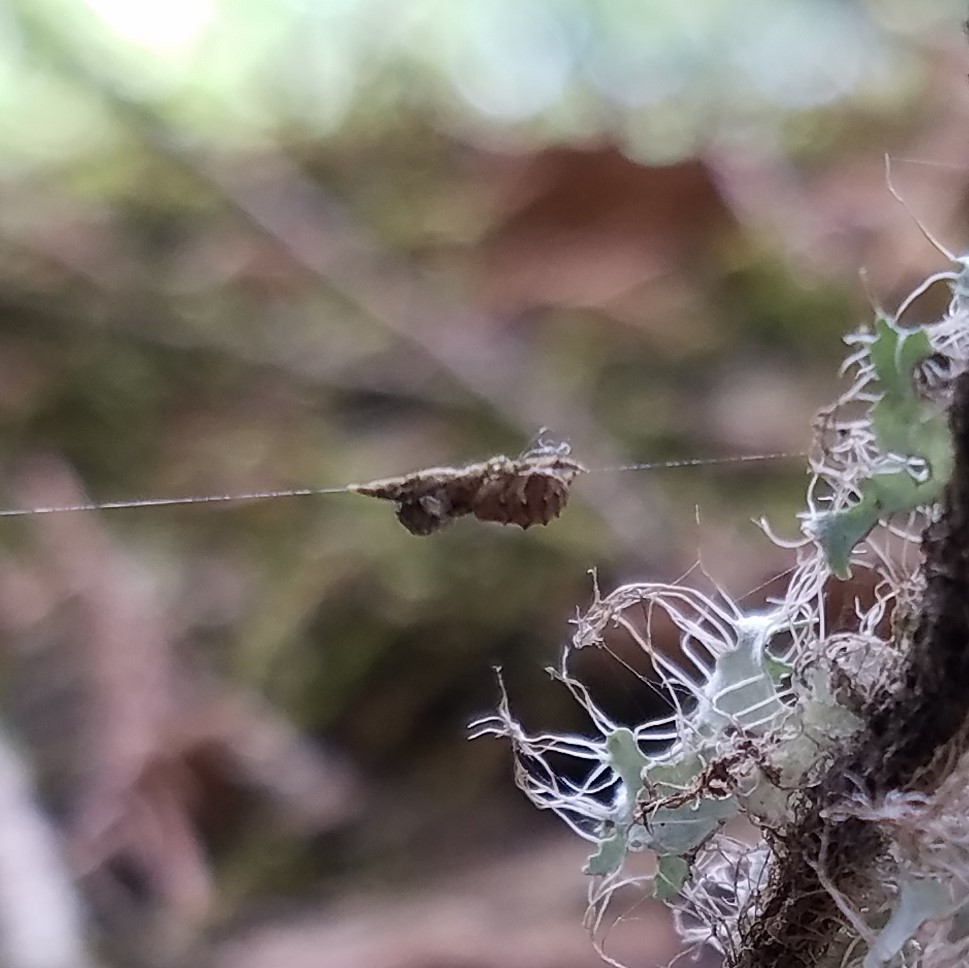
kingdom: Animalia
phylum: Arthropoda
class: Arachnida
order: Araneae
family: Uloboridae
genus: Hyptiotes
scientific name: Hyptiotes cavatus
